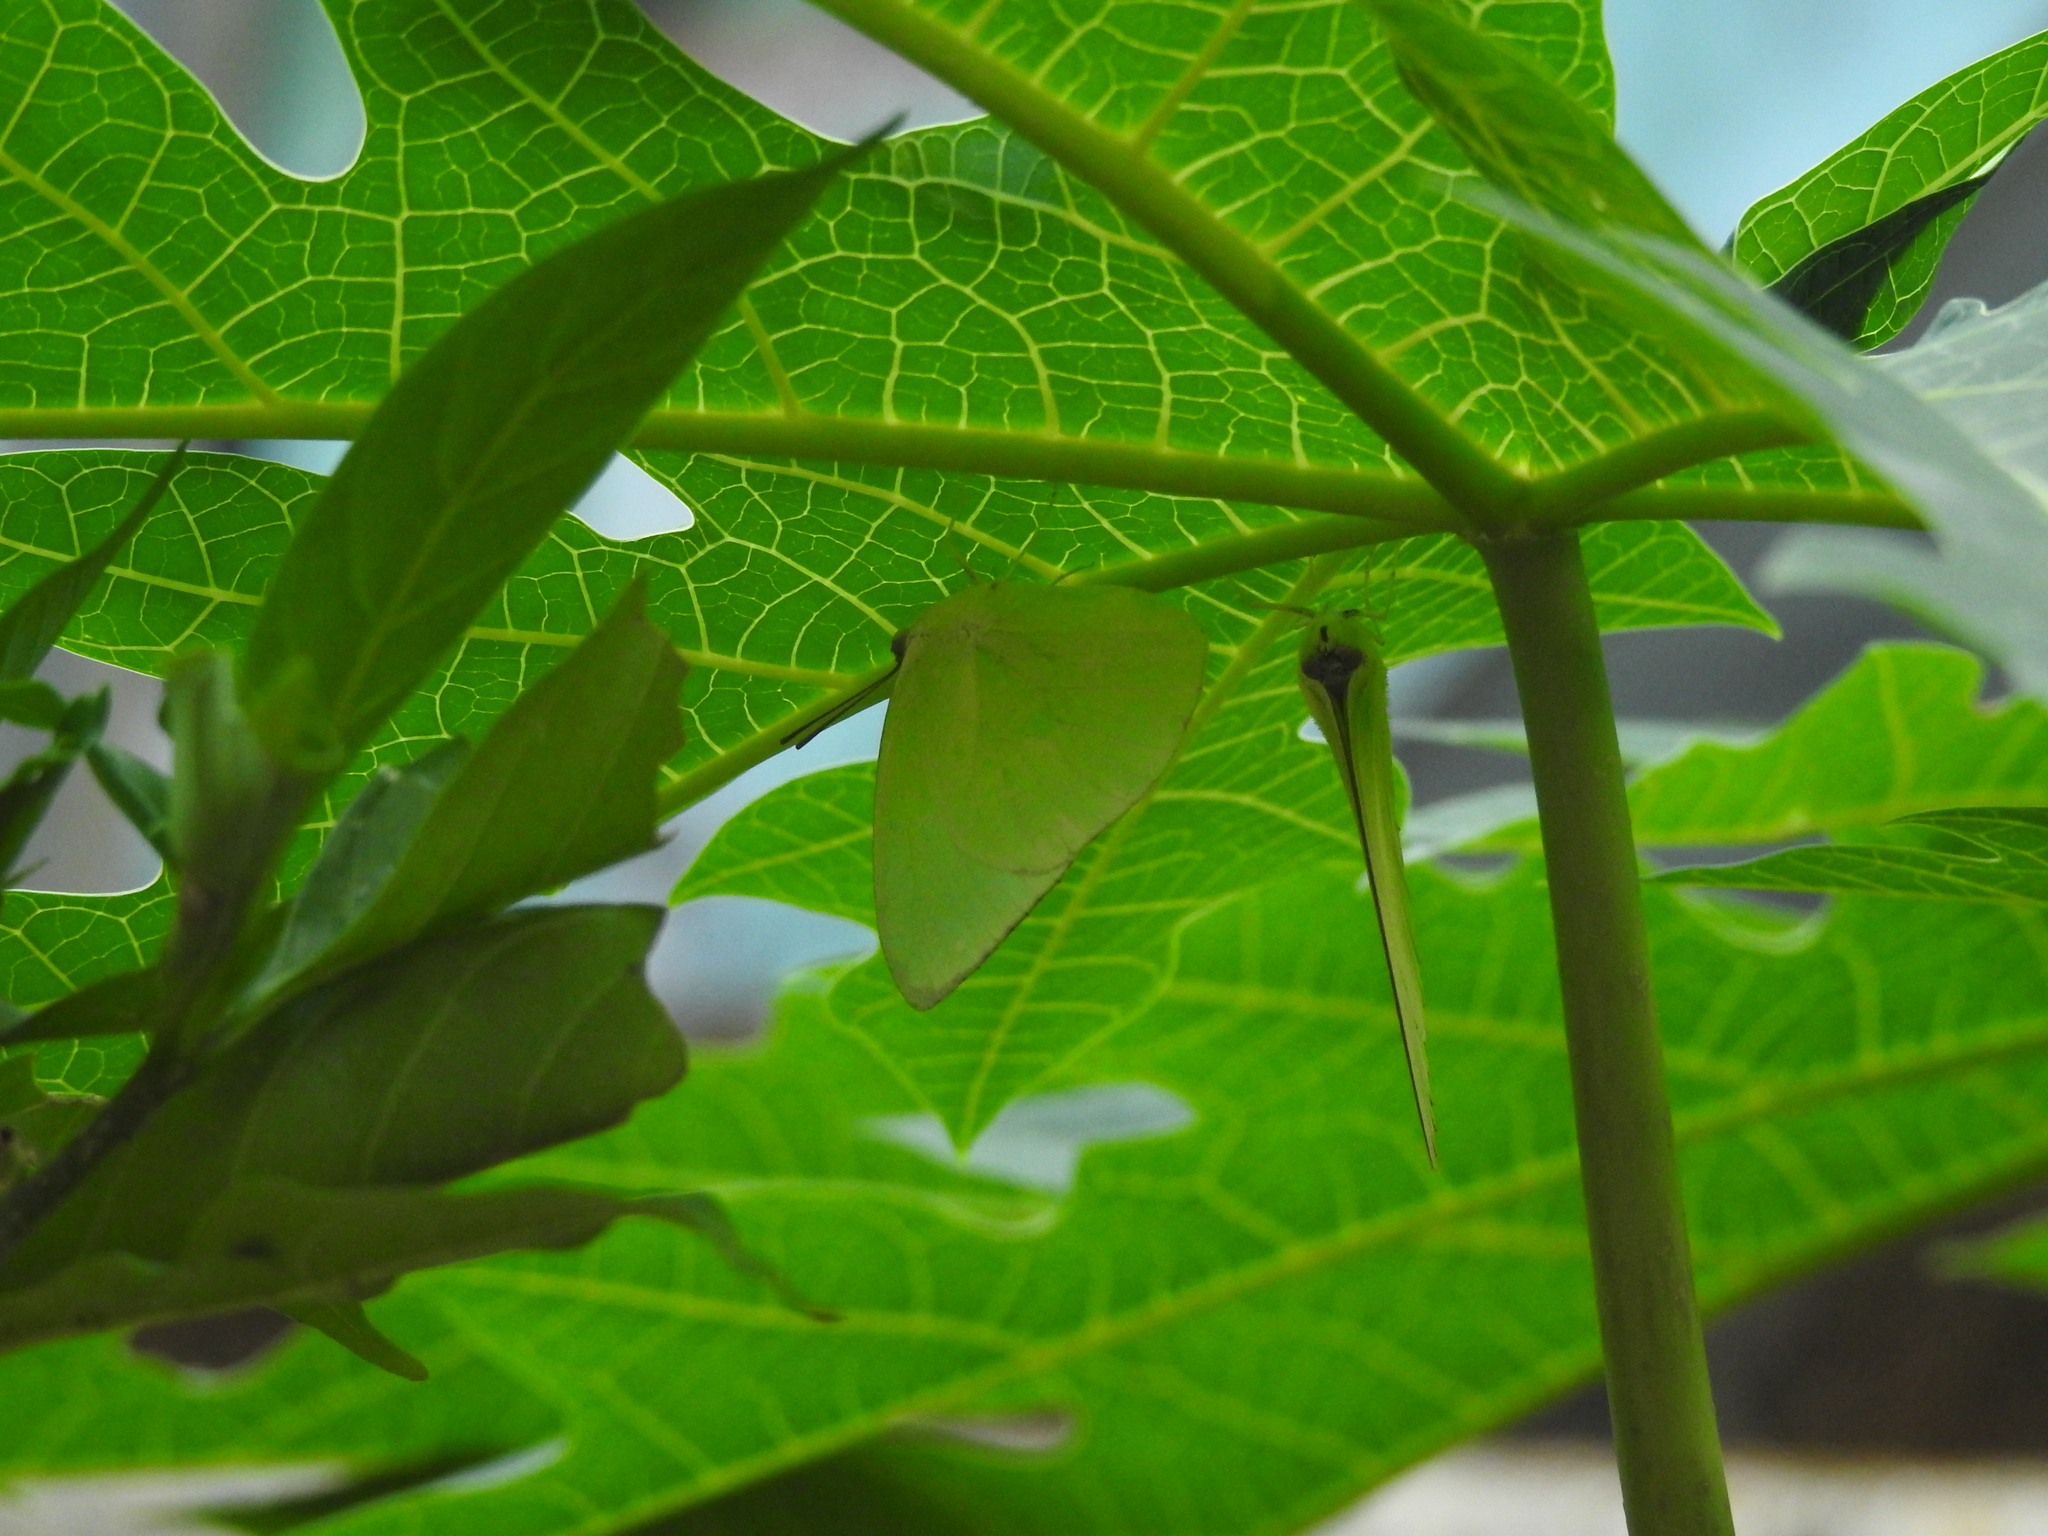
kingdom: Animalia
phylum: Arthropoda
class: Insecta
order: Lepidoptera
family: Pieridae
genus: Catopsilia
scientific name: Catopsilia pomona
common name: Common emigrant
